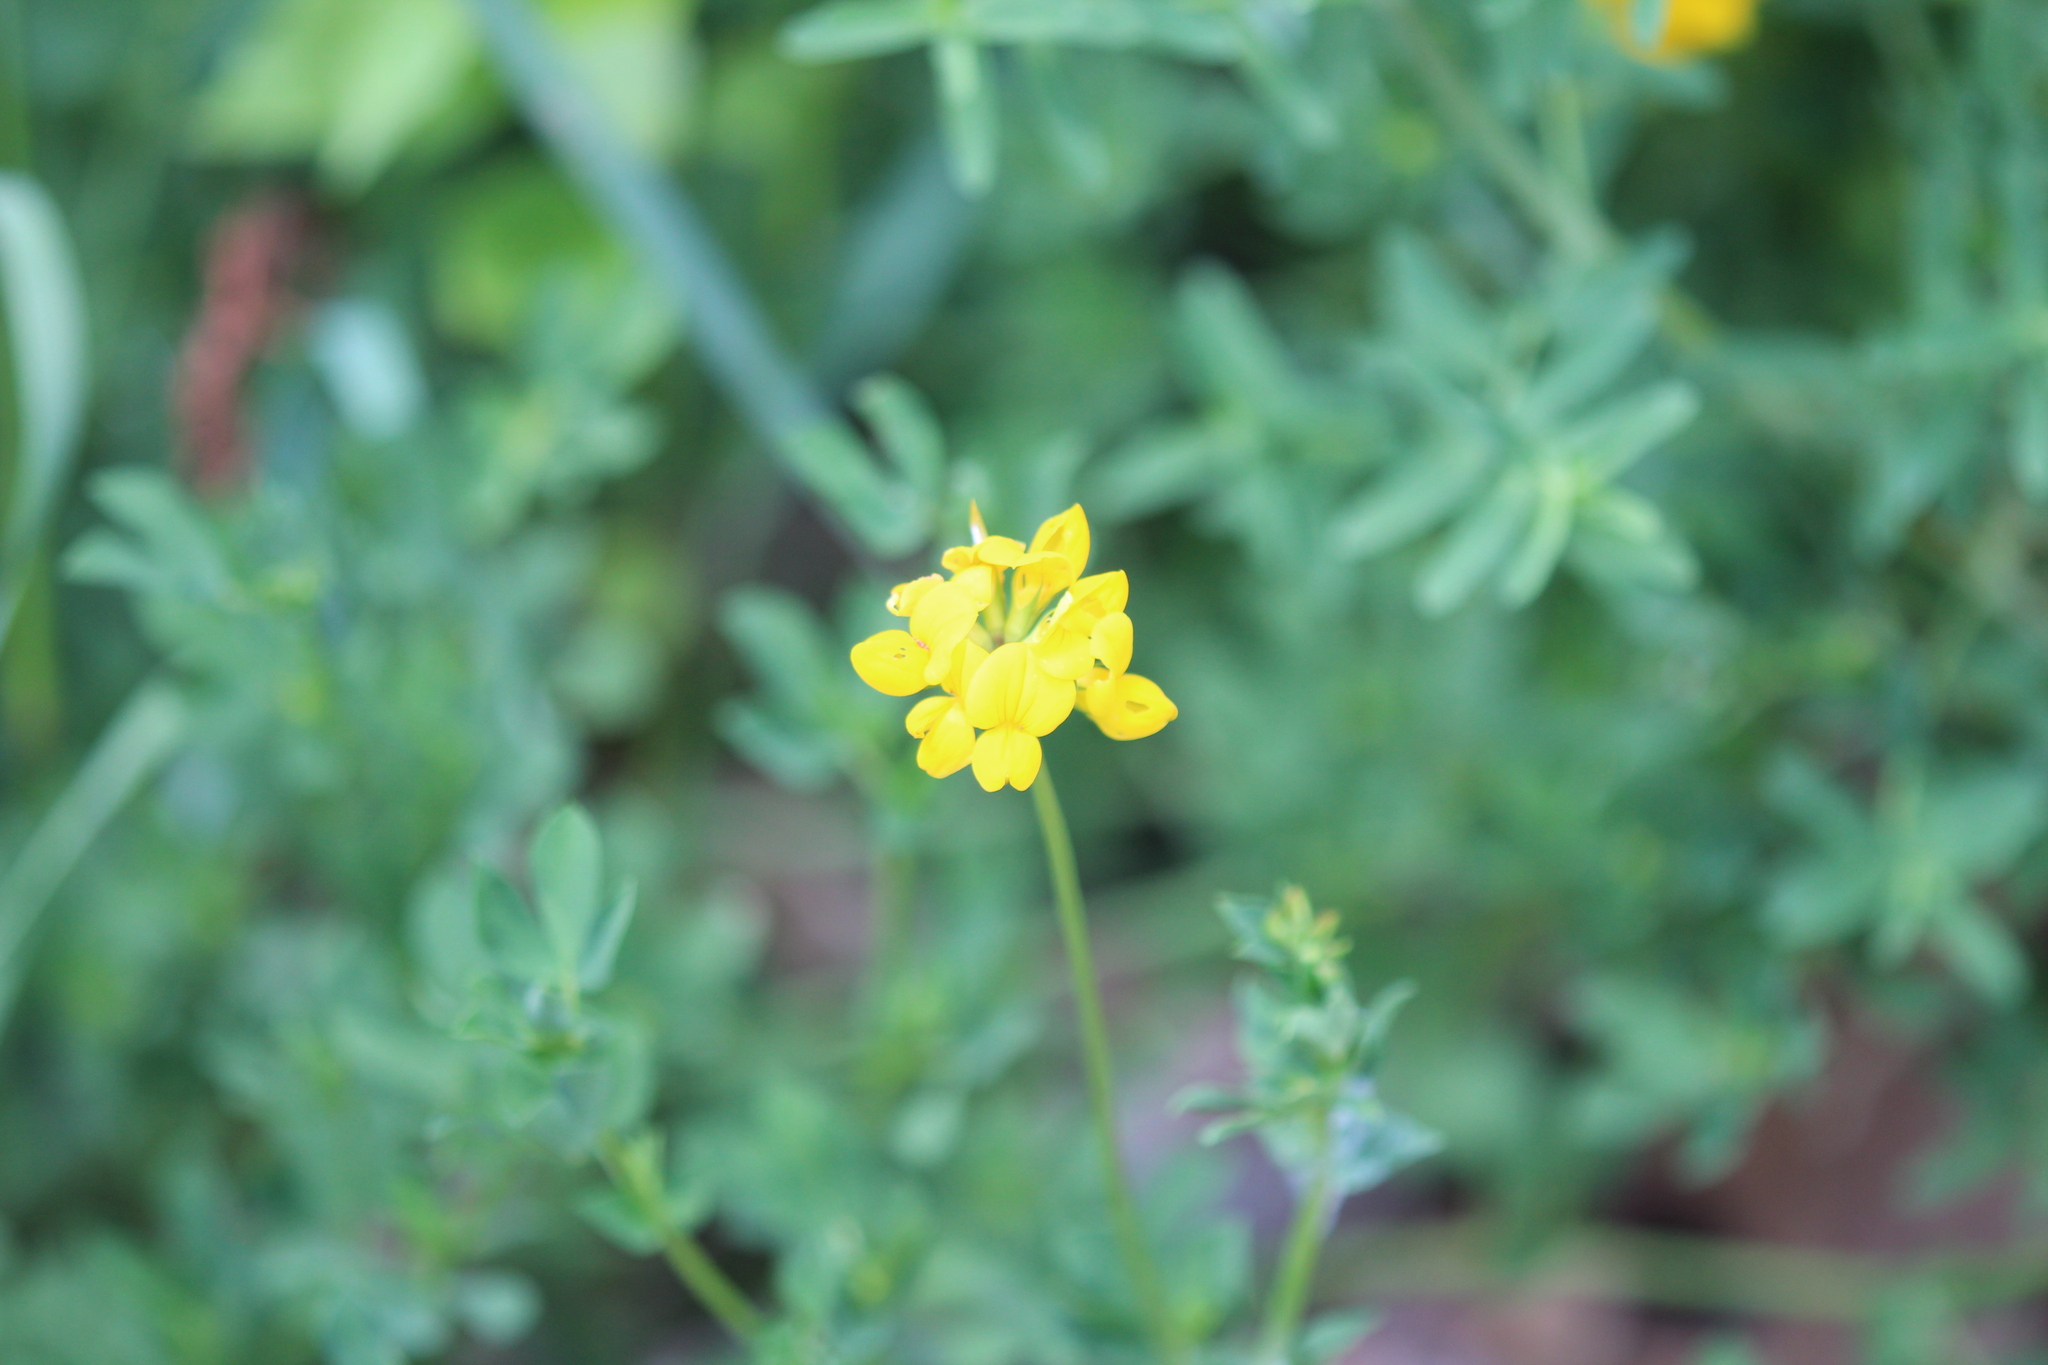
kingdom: Plantae
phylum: Tracheophyta
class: Magnoliopsida
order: Fabales
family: Fabaceae
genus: Lotus
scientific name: Lotus corniculatus
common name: Common bird's-foot-trefoil
